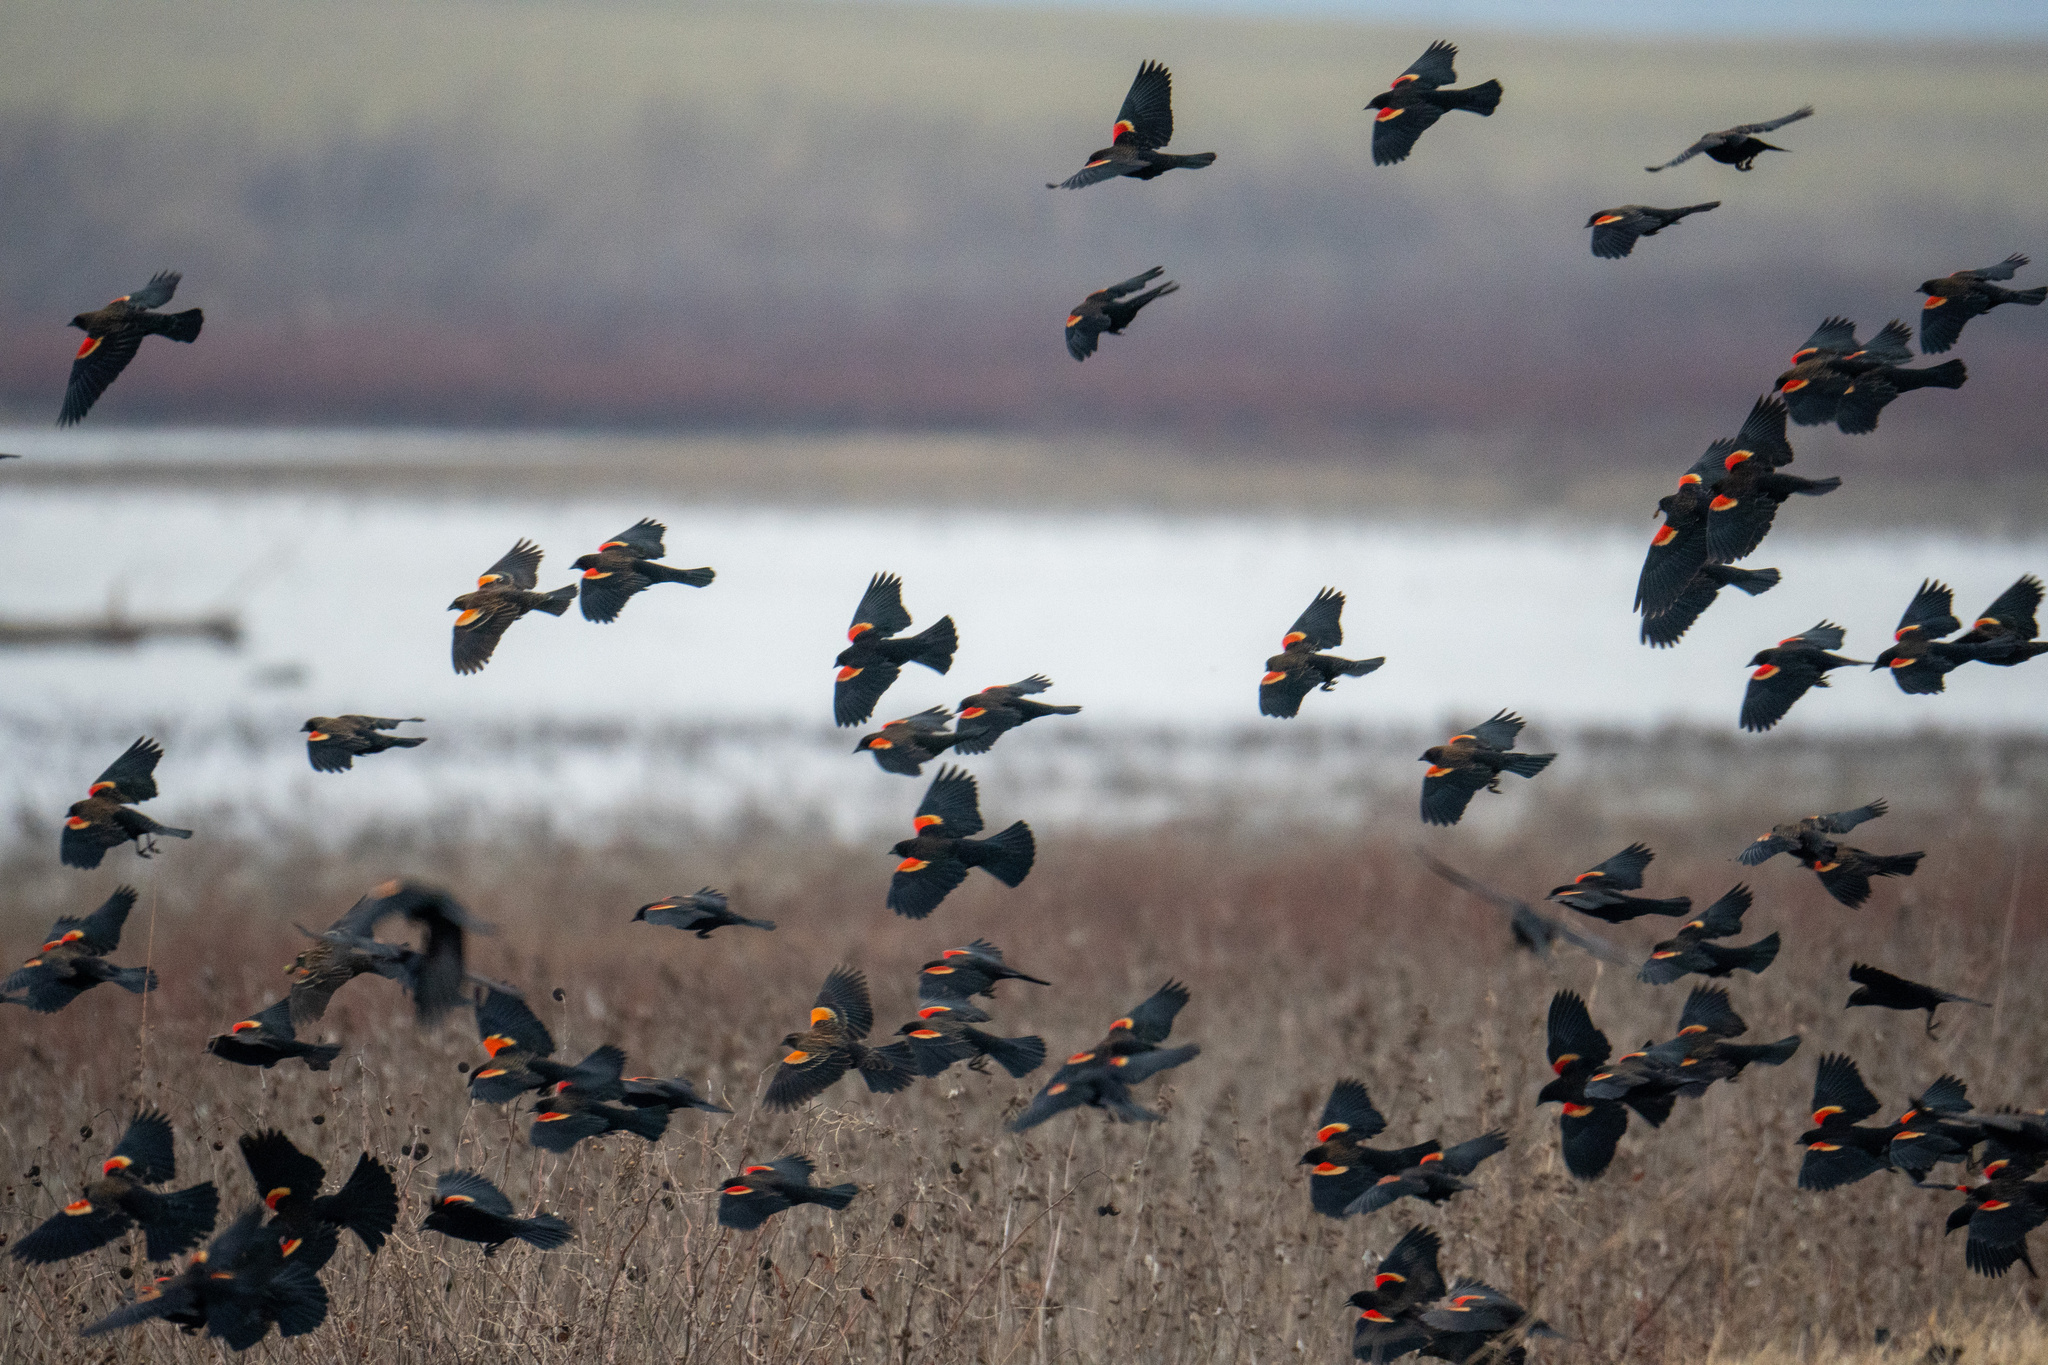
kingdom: Animalia
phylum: Chordata
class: Aves
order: Passeriformes
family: Icteridae
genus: Agelaius
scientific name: Agelaius phoeniceus
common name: Red-winged blackbird
